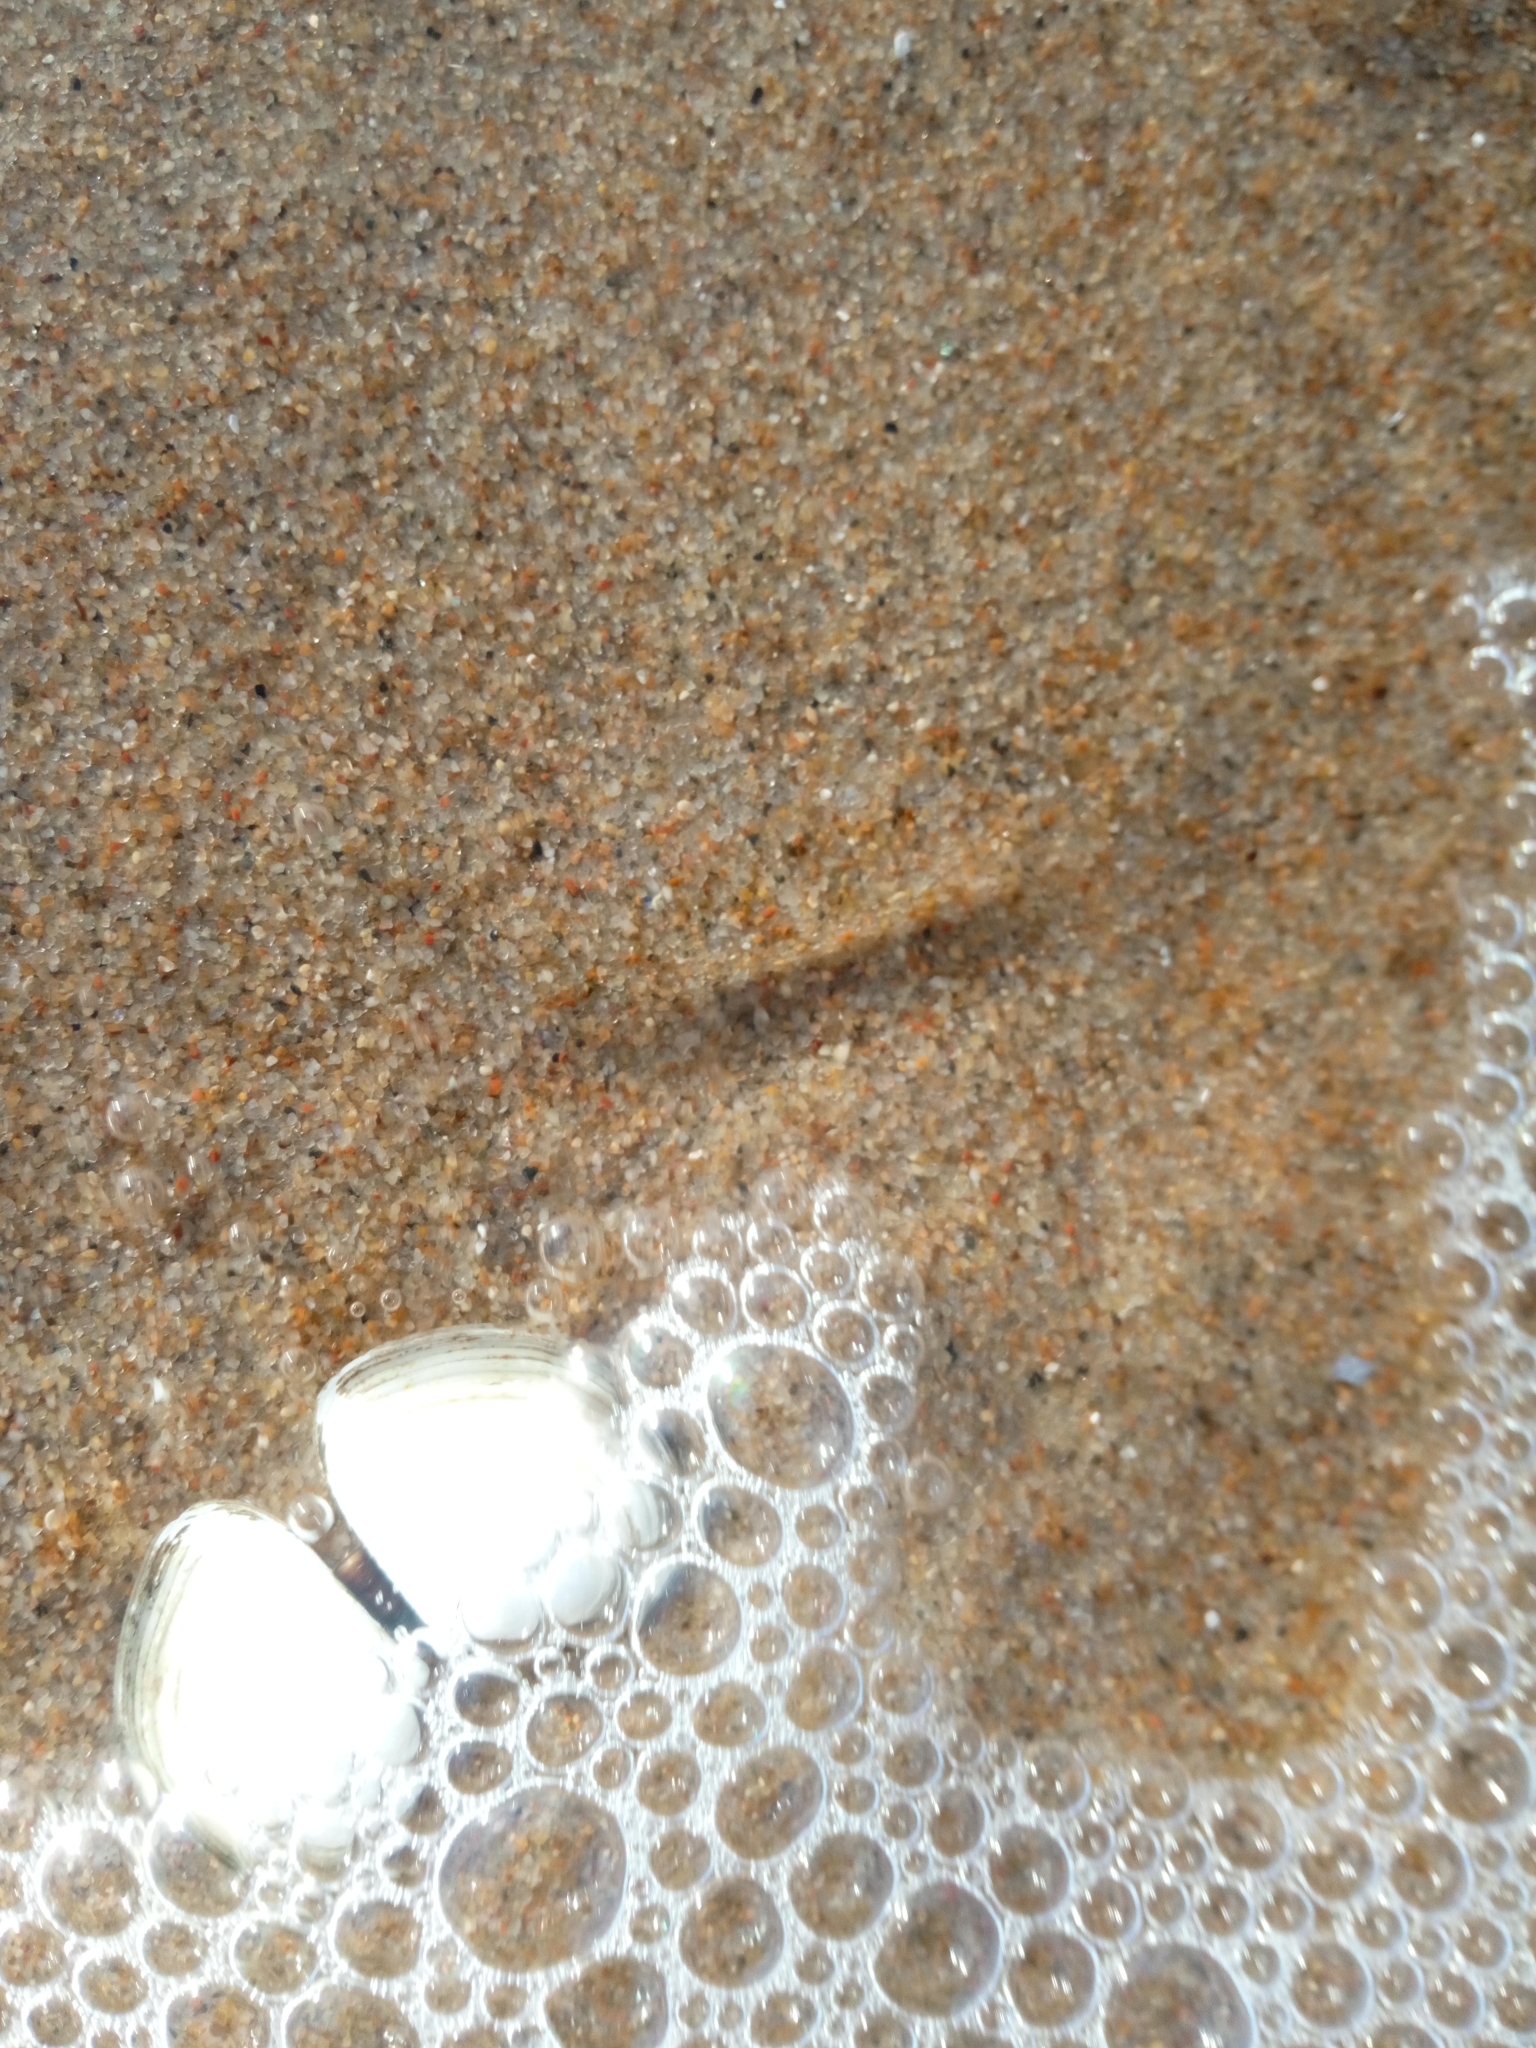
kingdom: Animalia
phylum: Mollusca
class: Bivalvia
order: Cardiida
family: Tellinidae
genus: Macoma
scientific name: Macoma balthica
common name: Baltic tellin
